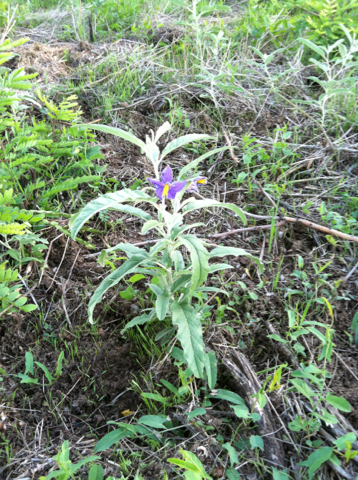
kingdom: Plantae
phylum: Tracheophyta
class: Magnoliopsida
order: Solanales
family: Solanaceae
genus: Solanum
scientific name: Solanum elaeagnifolium
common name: Silverleaf nightshade
